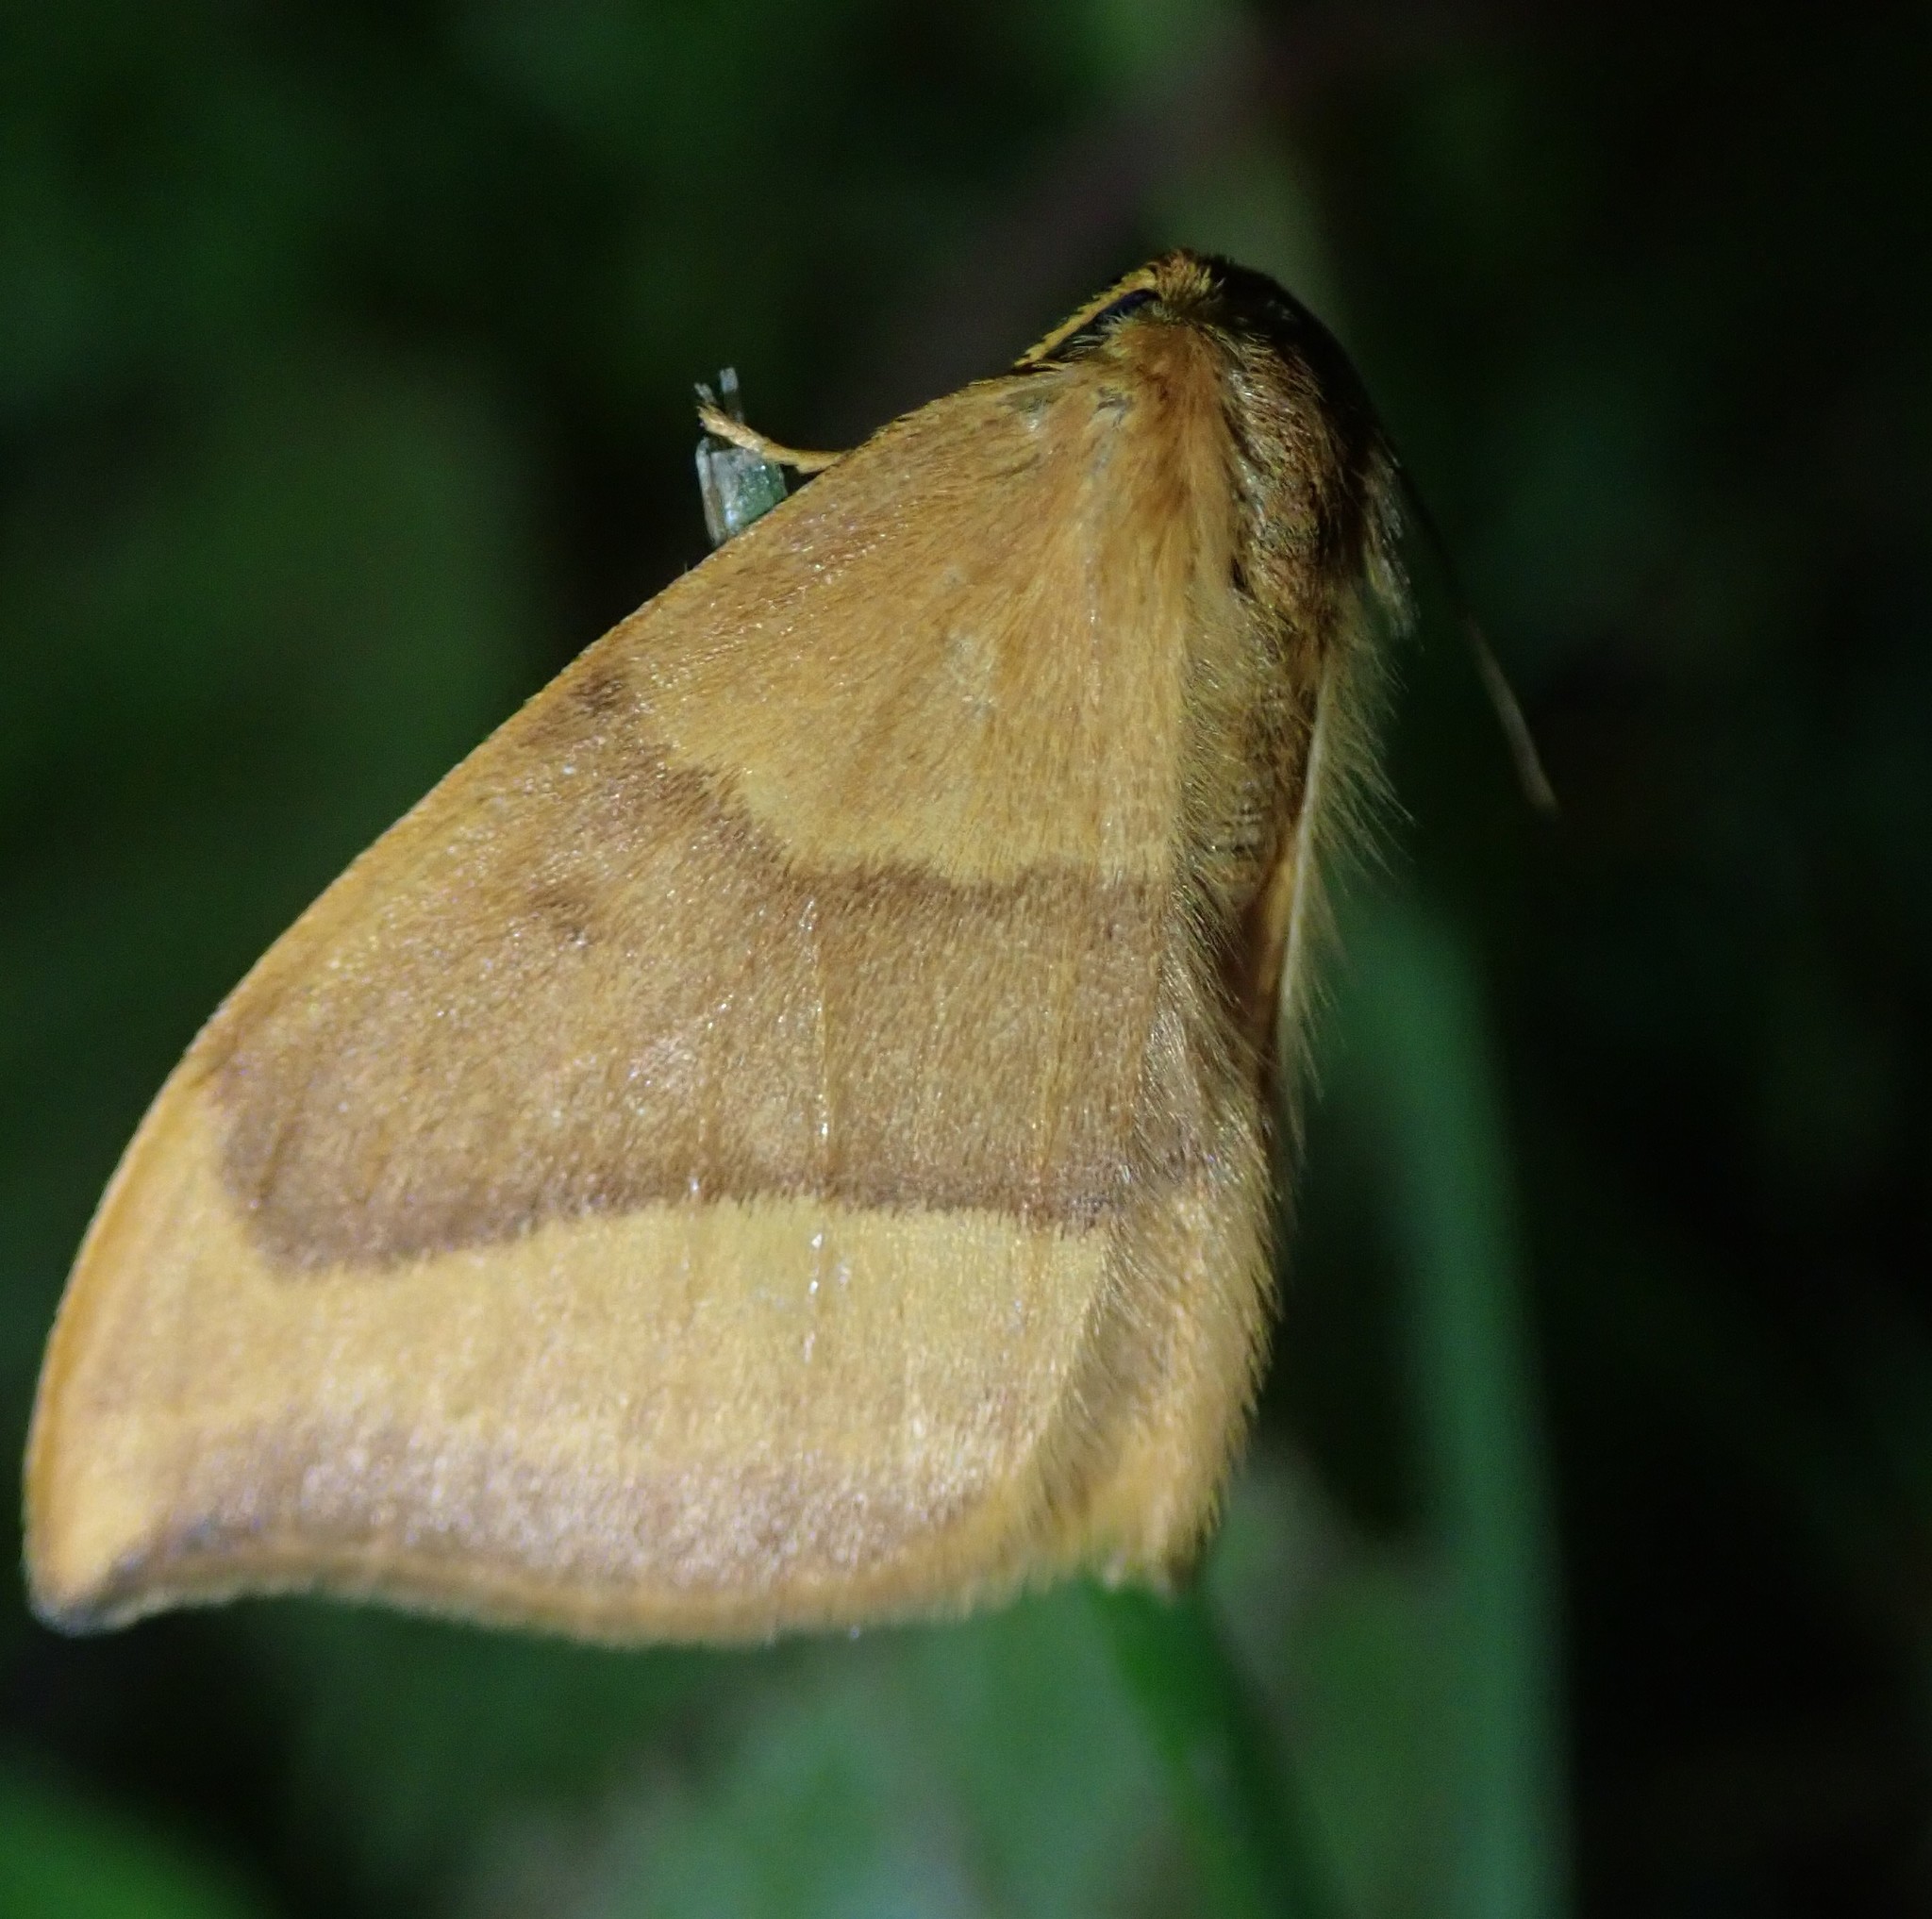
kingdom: Animalia
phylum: Arthropoda
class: Insecta
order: Lepidoptera
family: Drepanidae
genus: Watsonalla
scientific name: Watsonalla cultraria
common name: Barred hook-tip
